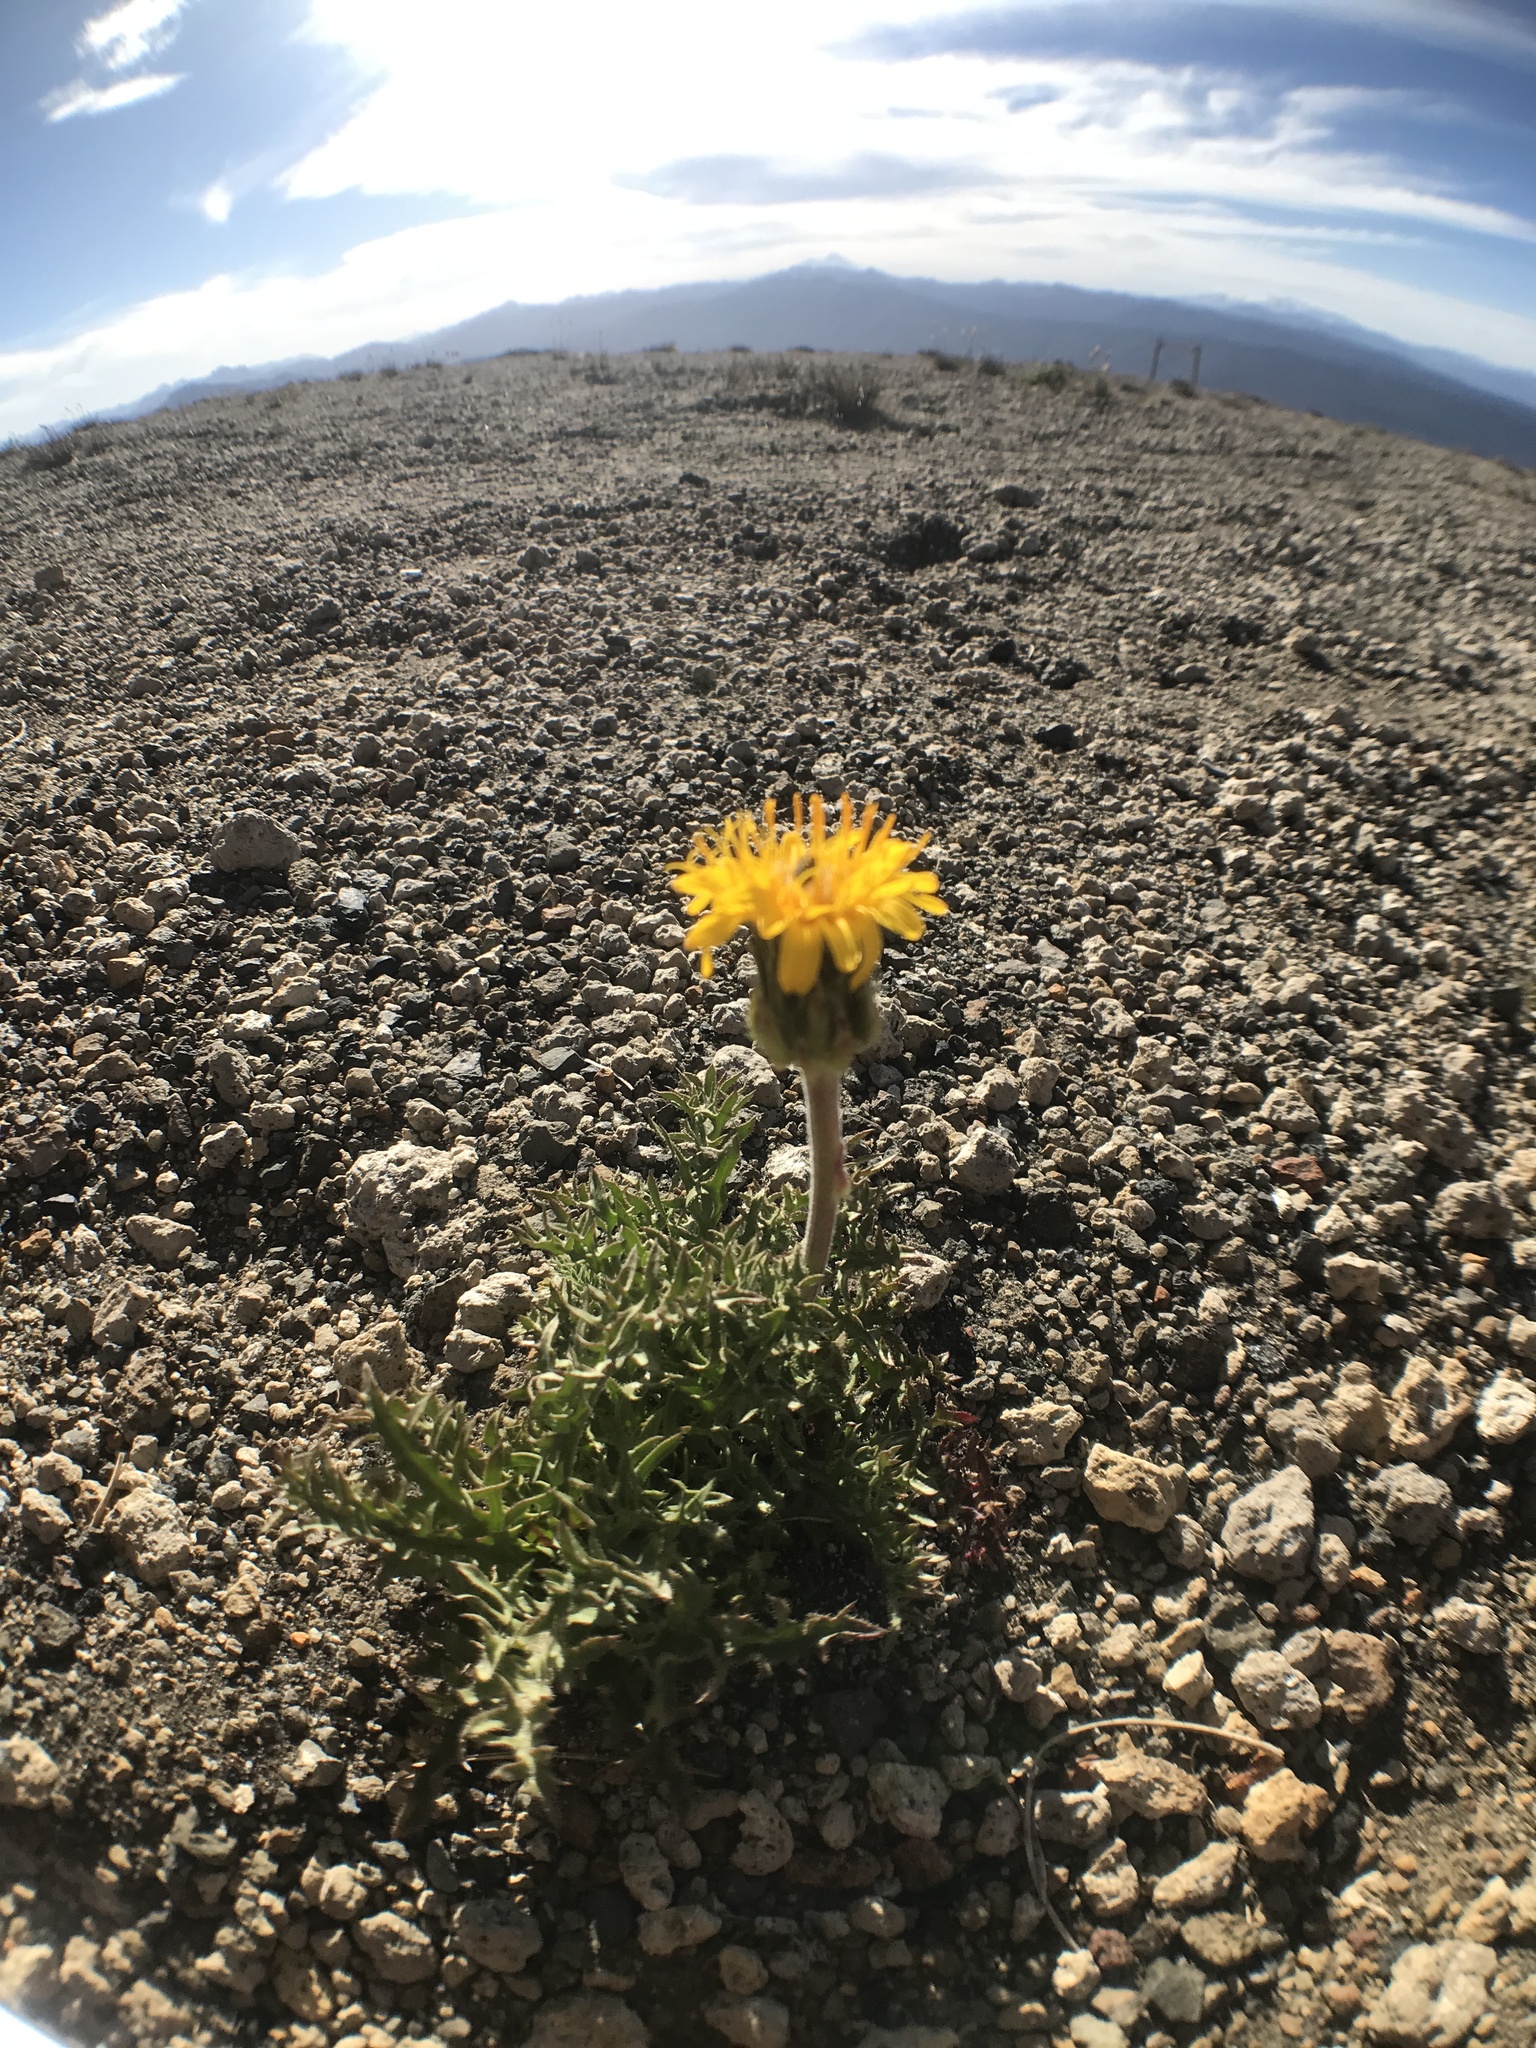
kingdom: Plantae
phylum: Tracheophyta
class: Magnoliopsida
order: Asterales
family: Asteraceae
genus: Hypochaeris
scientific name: Hypochaeris tenuifolia
